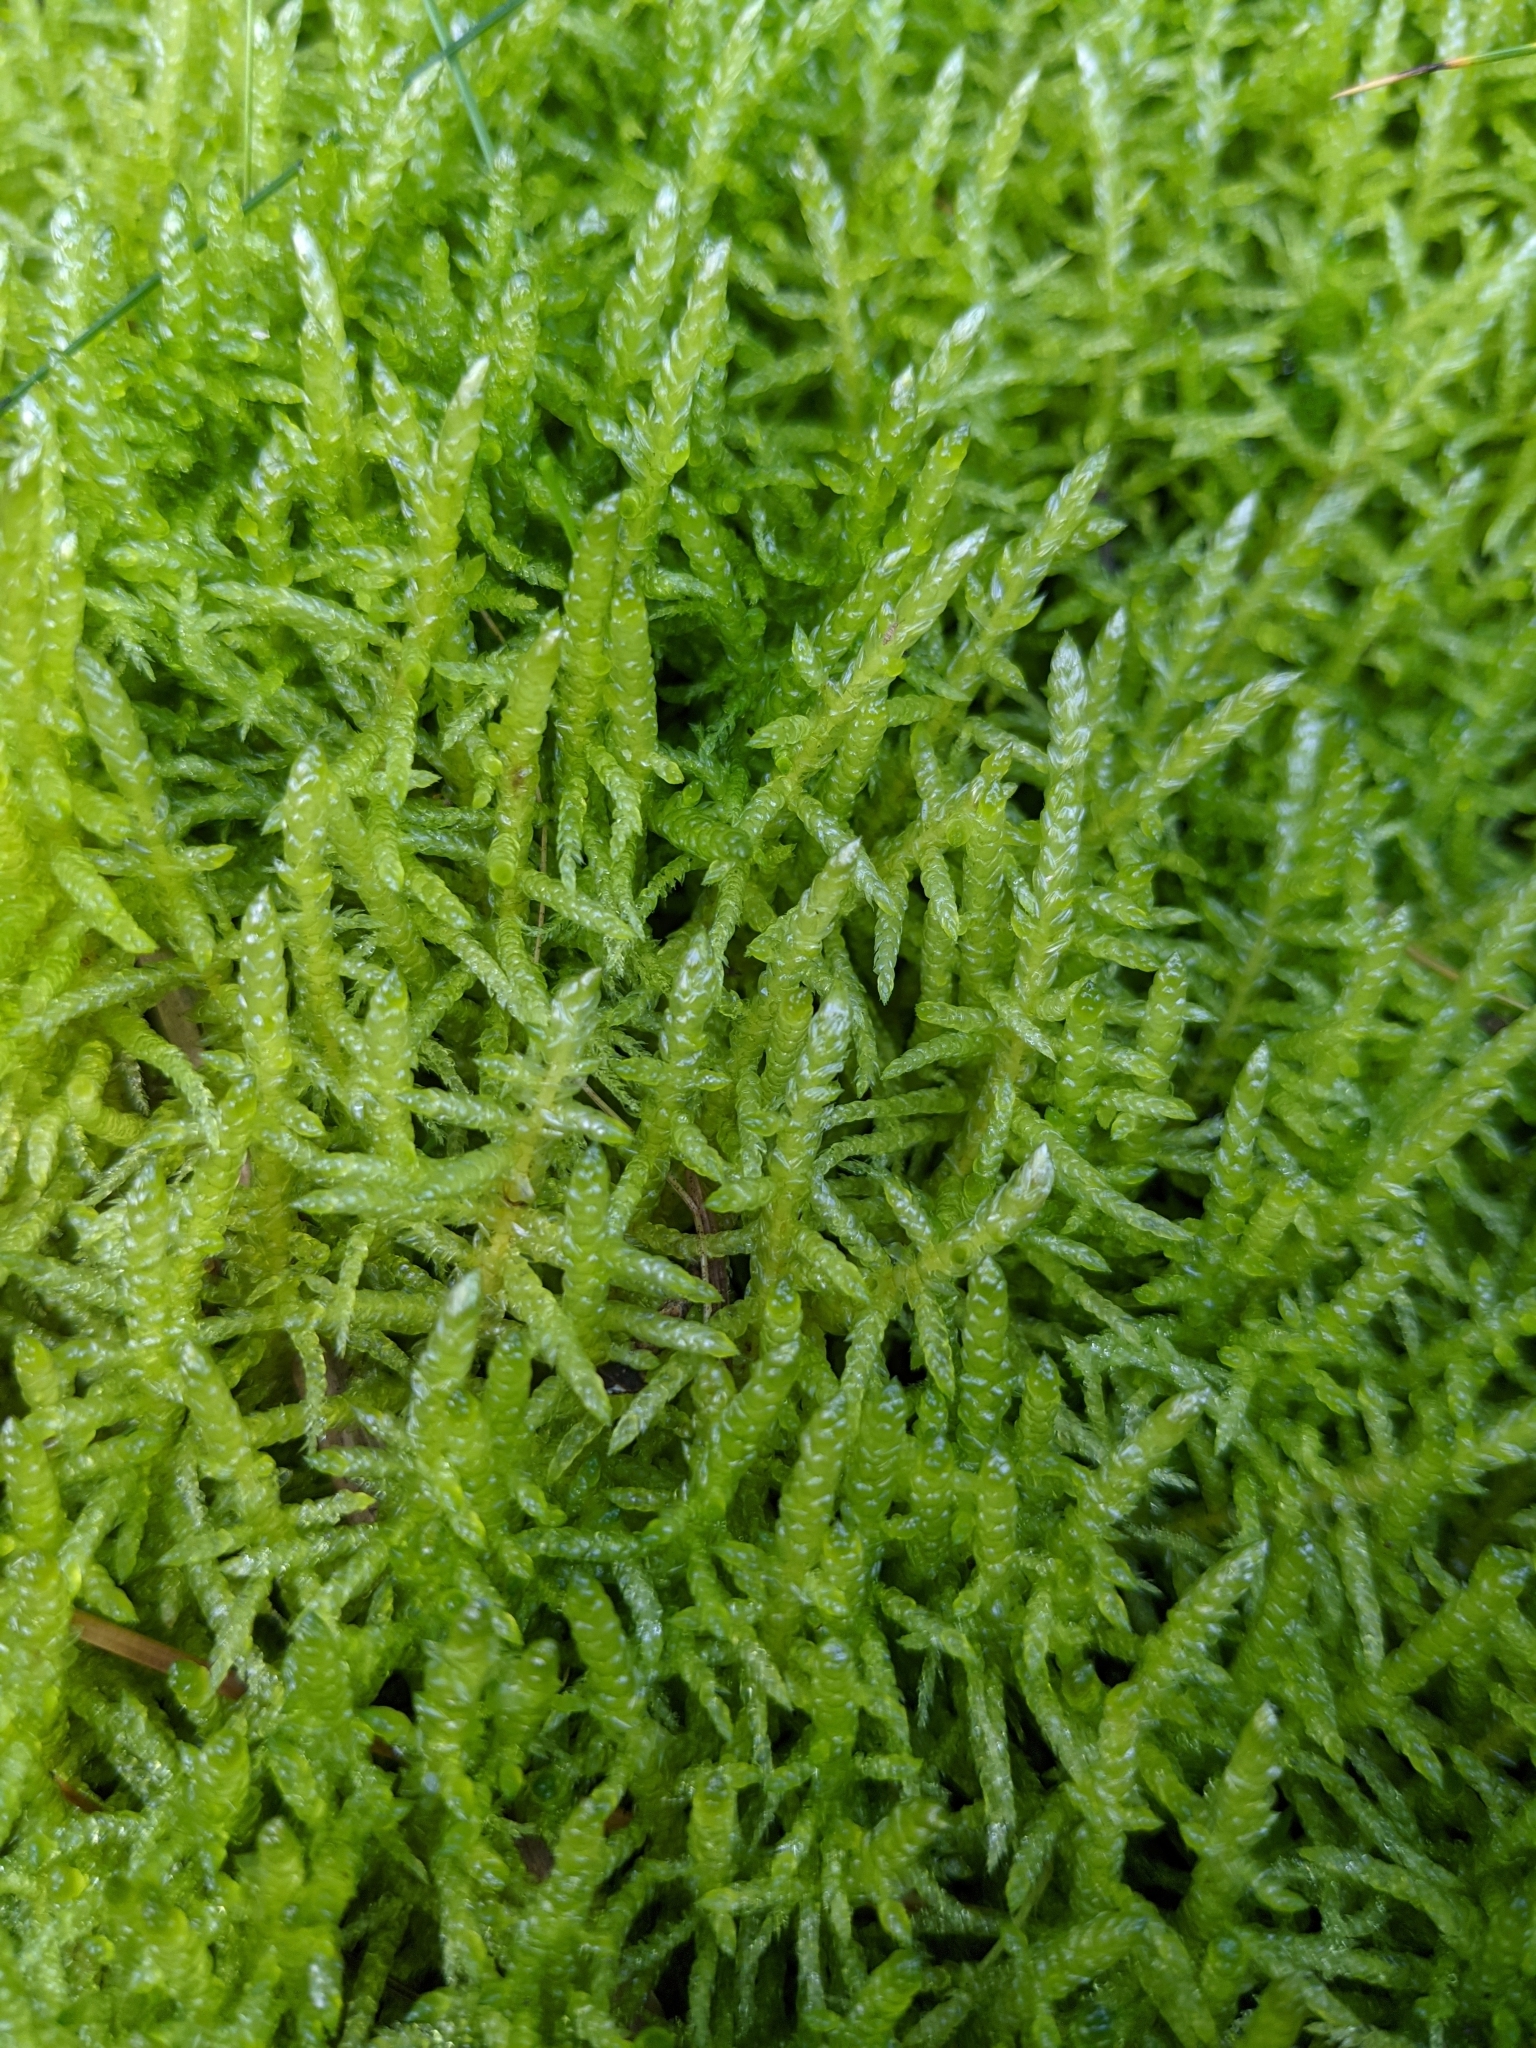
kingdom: Plantae
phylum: Bryophyta
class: Bryopsida
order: Hypnales
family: Brachytheciaceae
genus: Pseudoscleropodium
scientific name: Pseudoscleropodium purum
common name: Neat feather-moss
